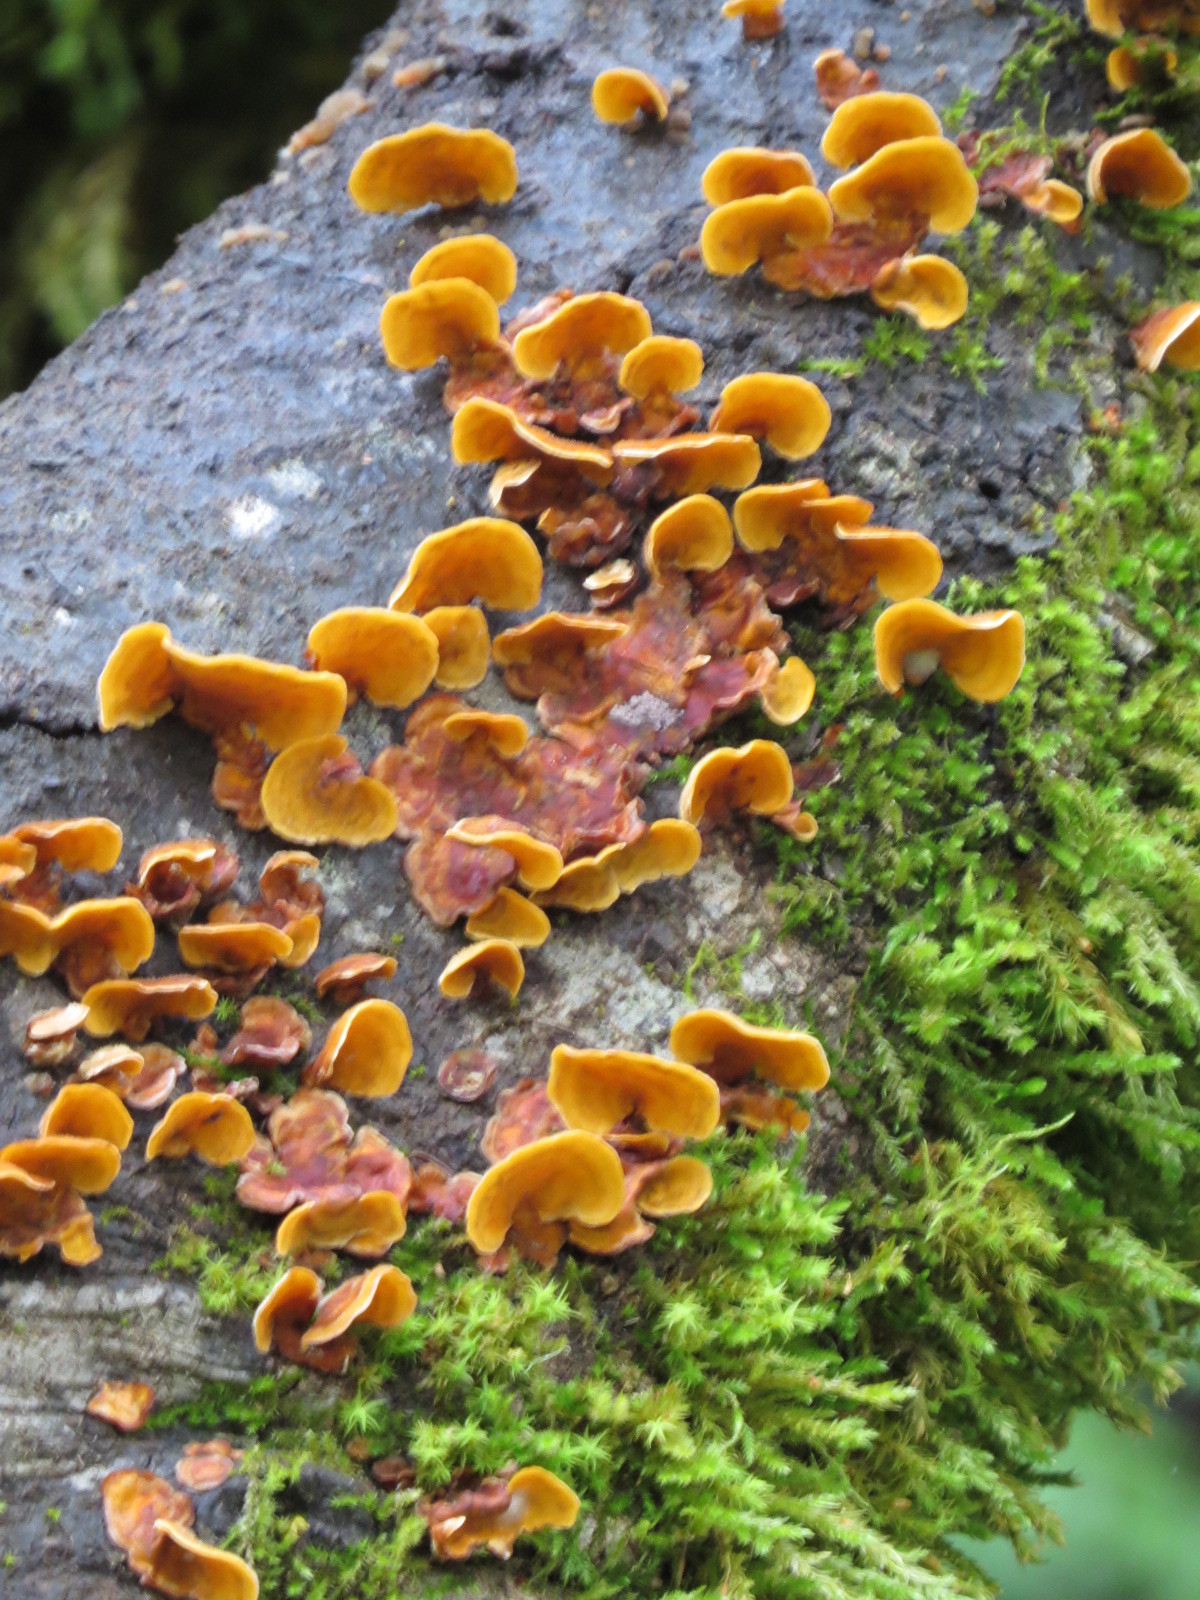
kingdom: Fungi
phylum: Basidiomycota
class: Agaricomycetes
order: Russulales
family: Stereaceae
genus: Stereum
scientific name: Stereum hirsutum
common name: Hairy curtain crust
